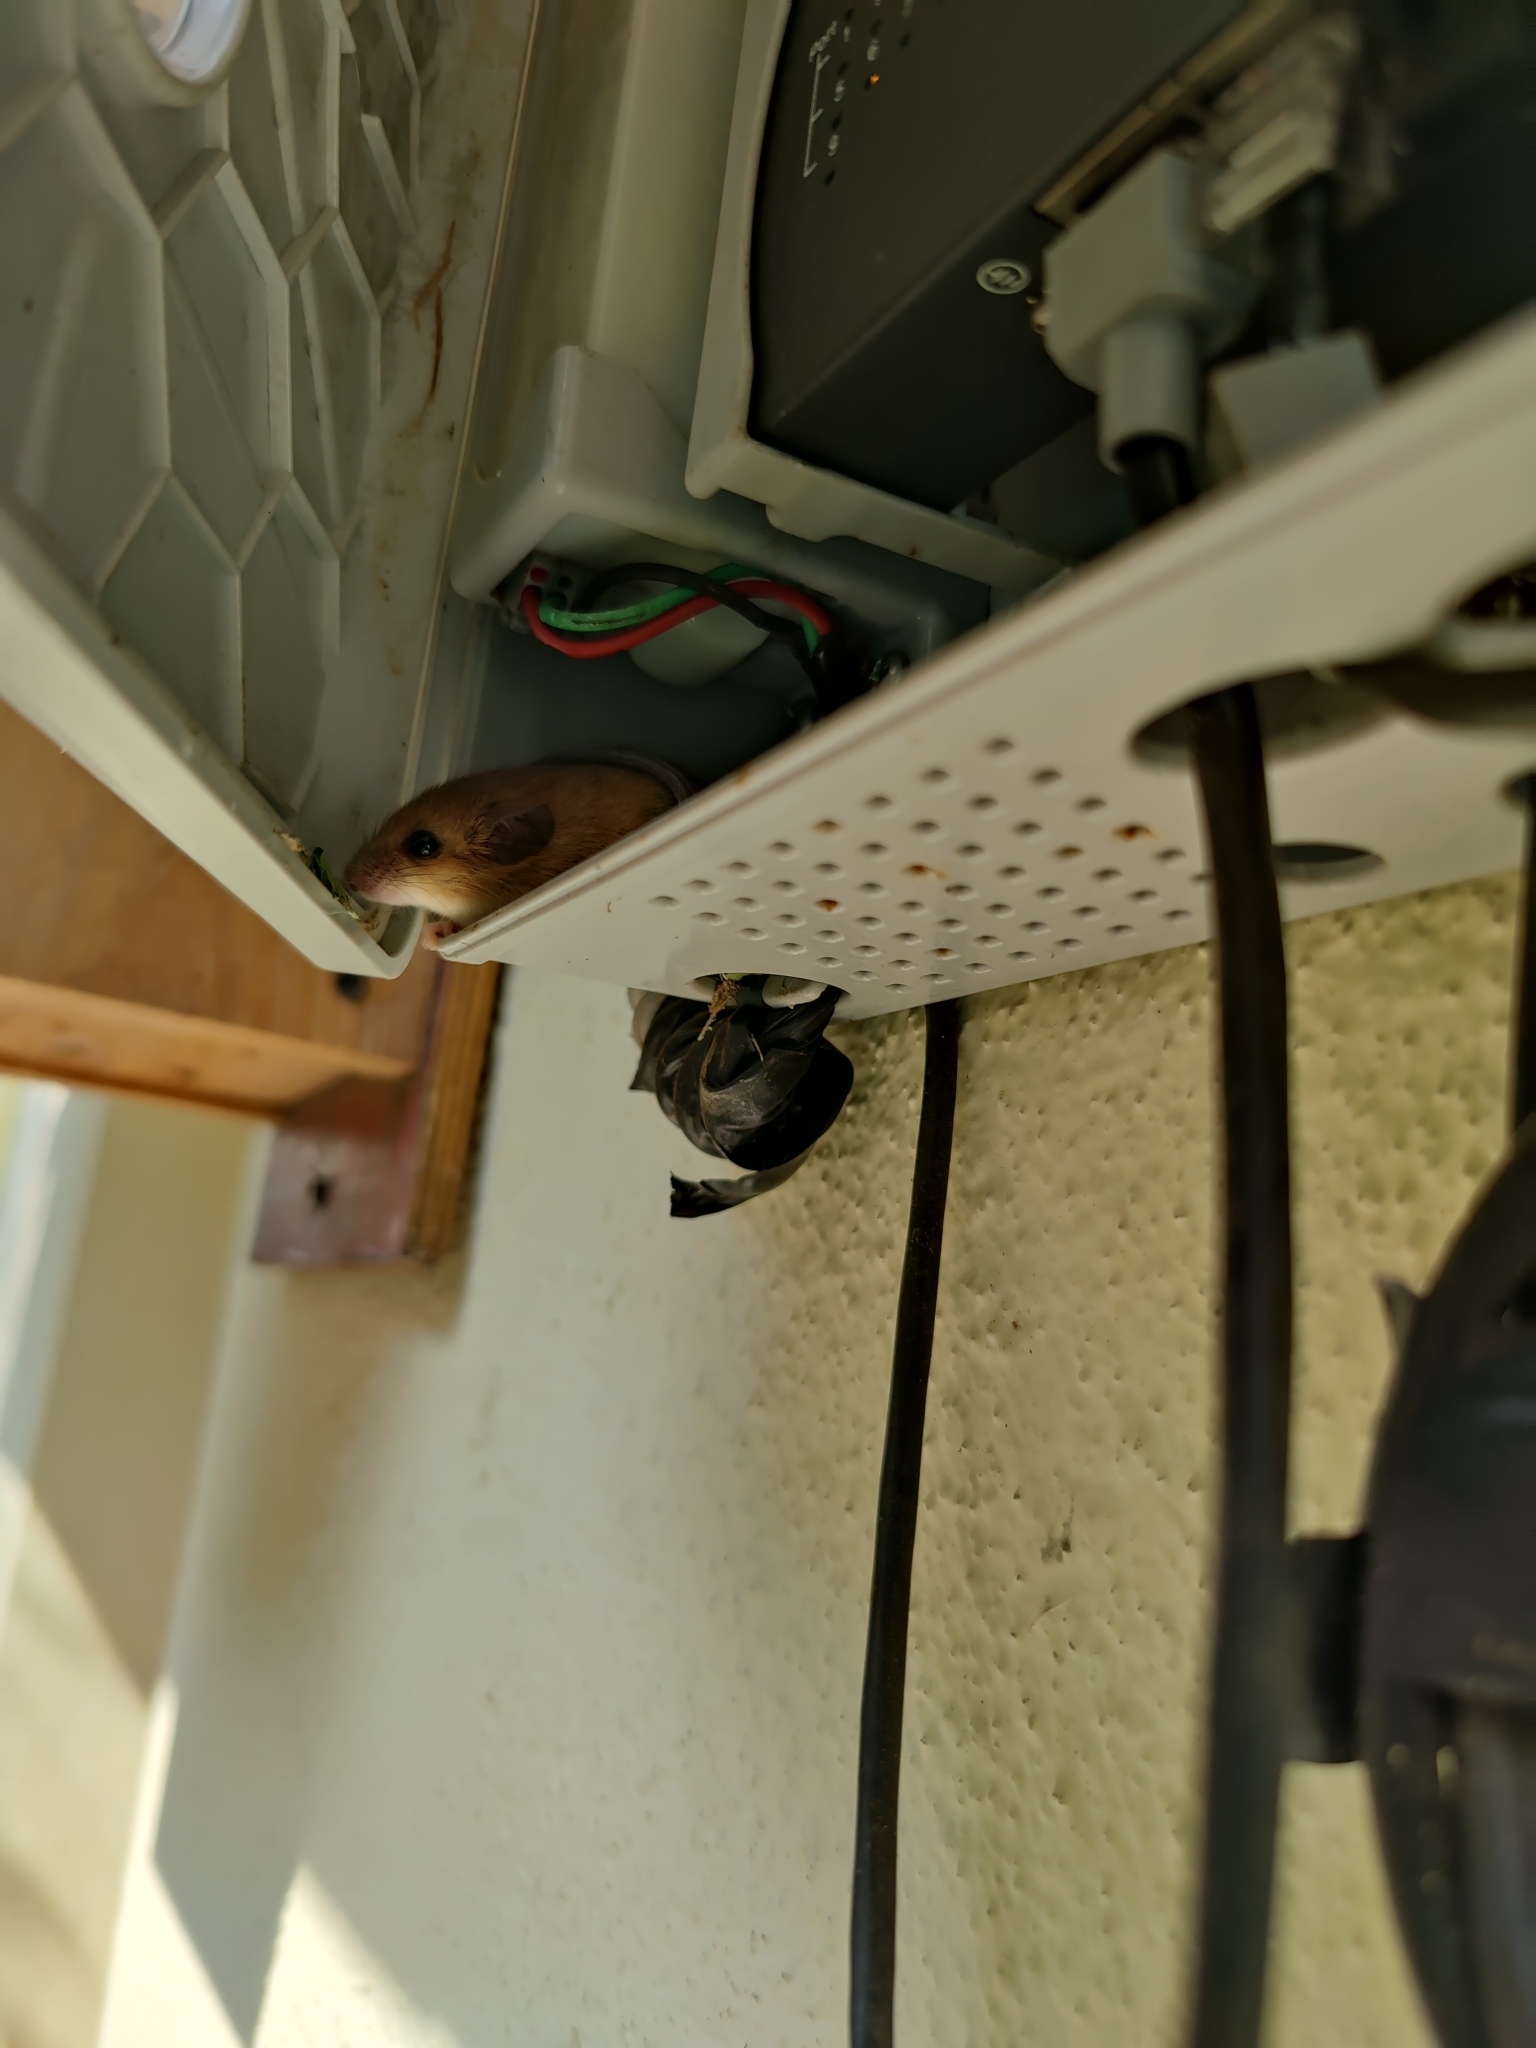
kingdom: Animalia
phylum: Chordata
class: Mammalia
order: Rodentia
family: Muridae
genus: Vandeleuria
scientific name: Vandeleuria oleracea
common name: Indomalayan vandeleuria
